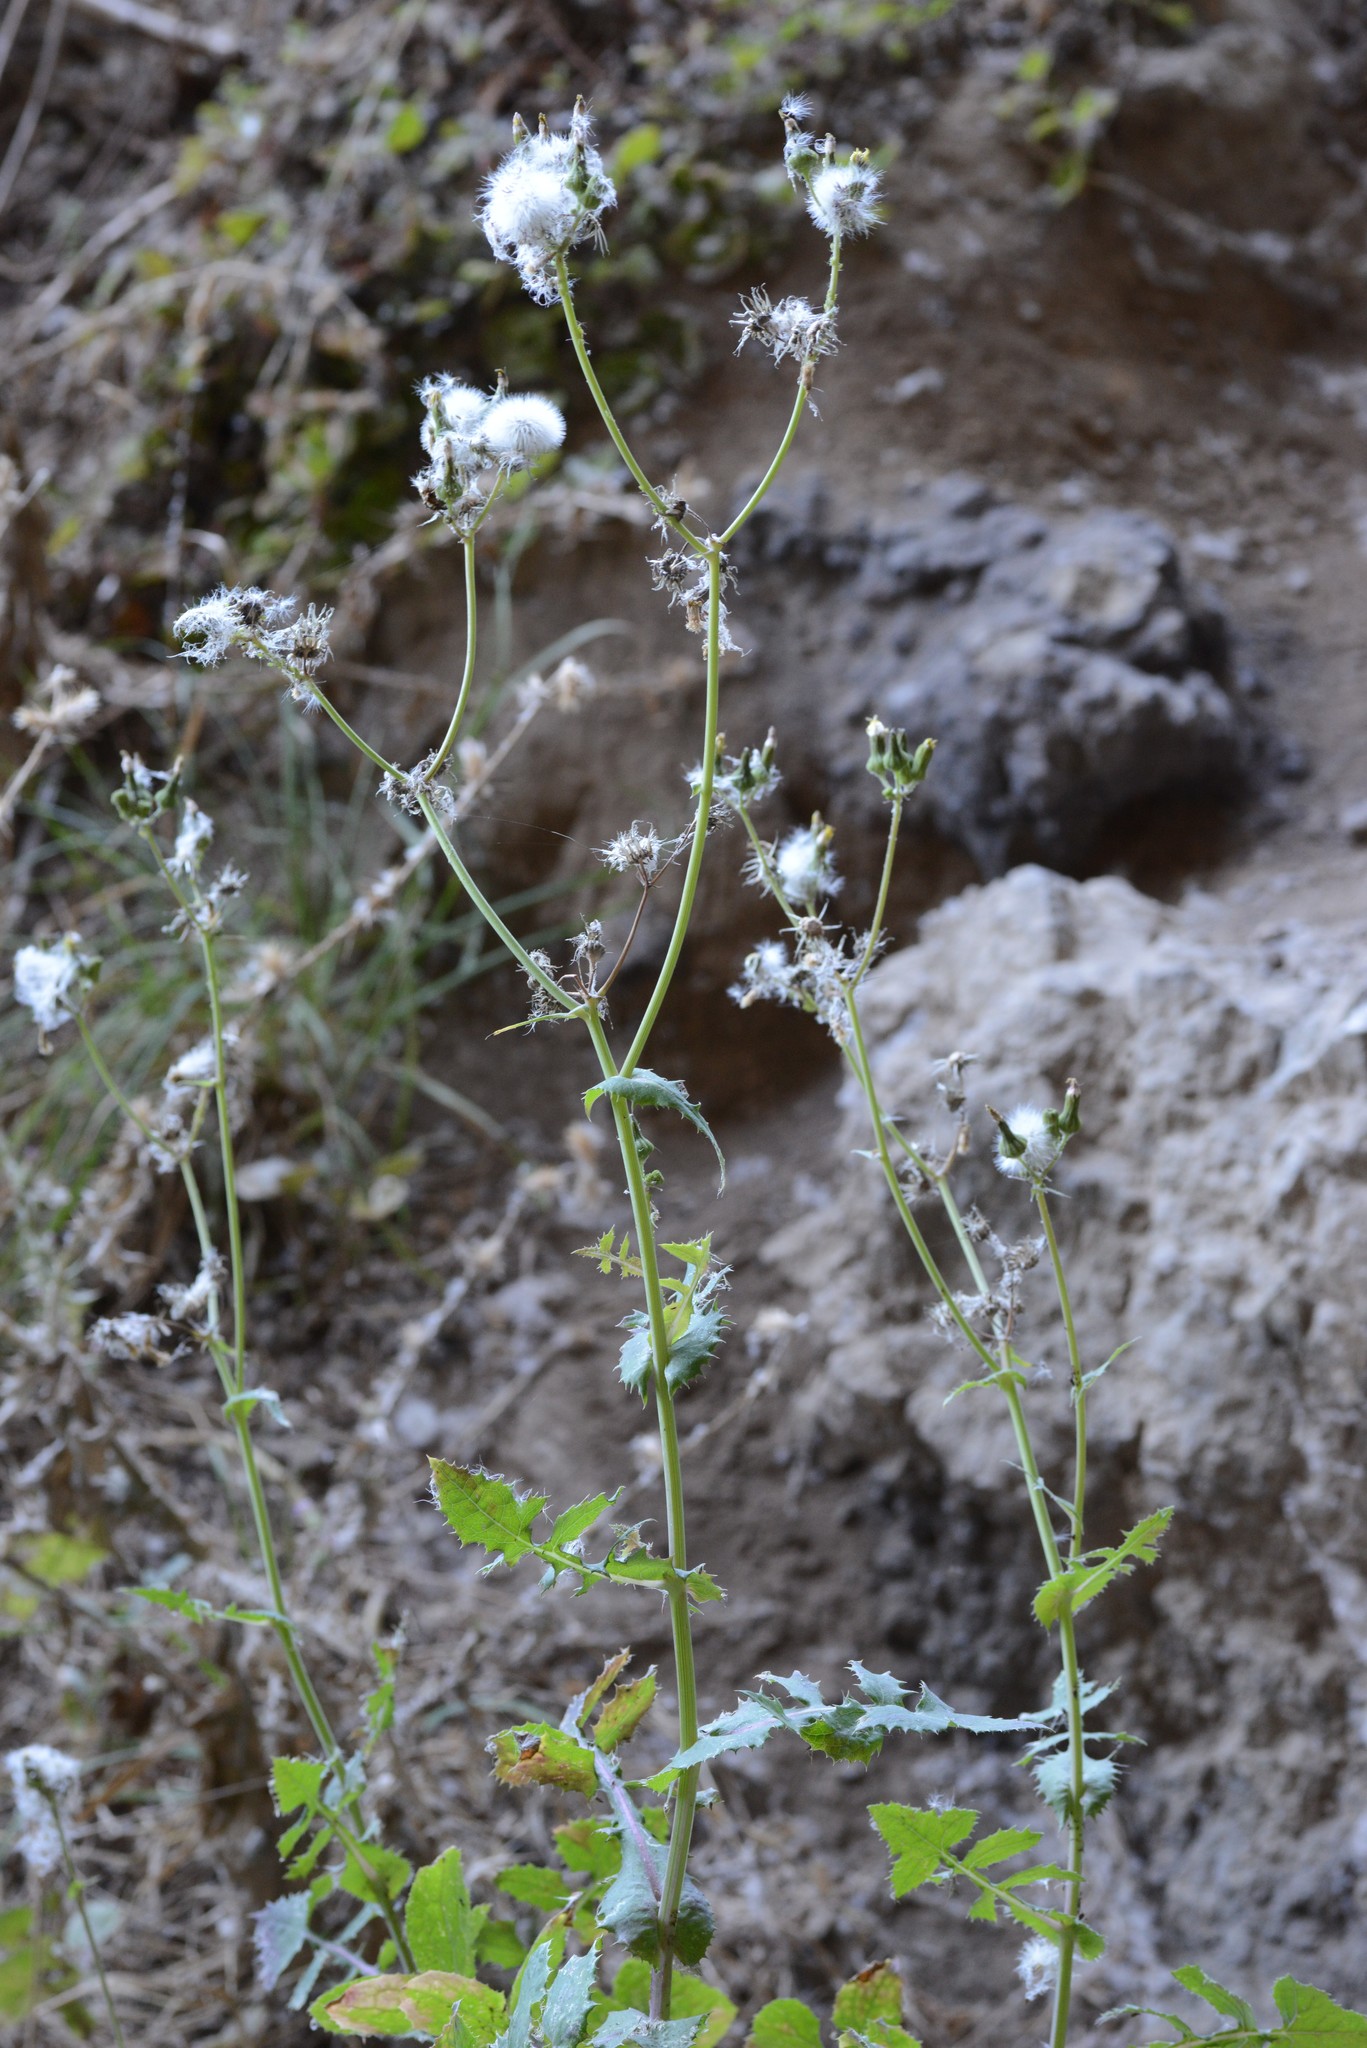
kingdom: Plantae
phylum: Tracheophyta
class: Magnoliopsida
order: Asterales
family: Asteraceae
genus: Sonchus
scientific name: Sonchus oleraceus
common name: Common sowthistle
